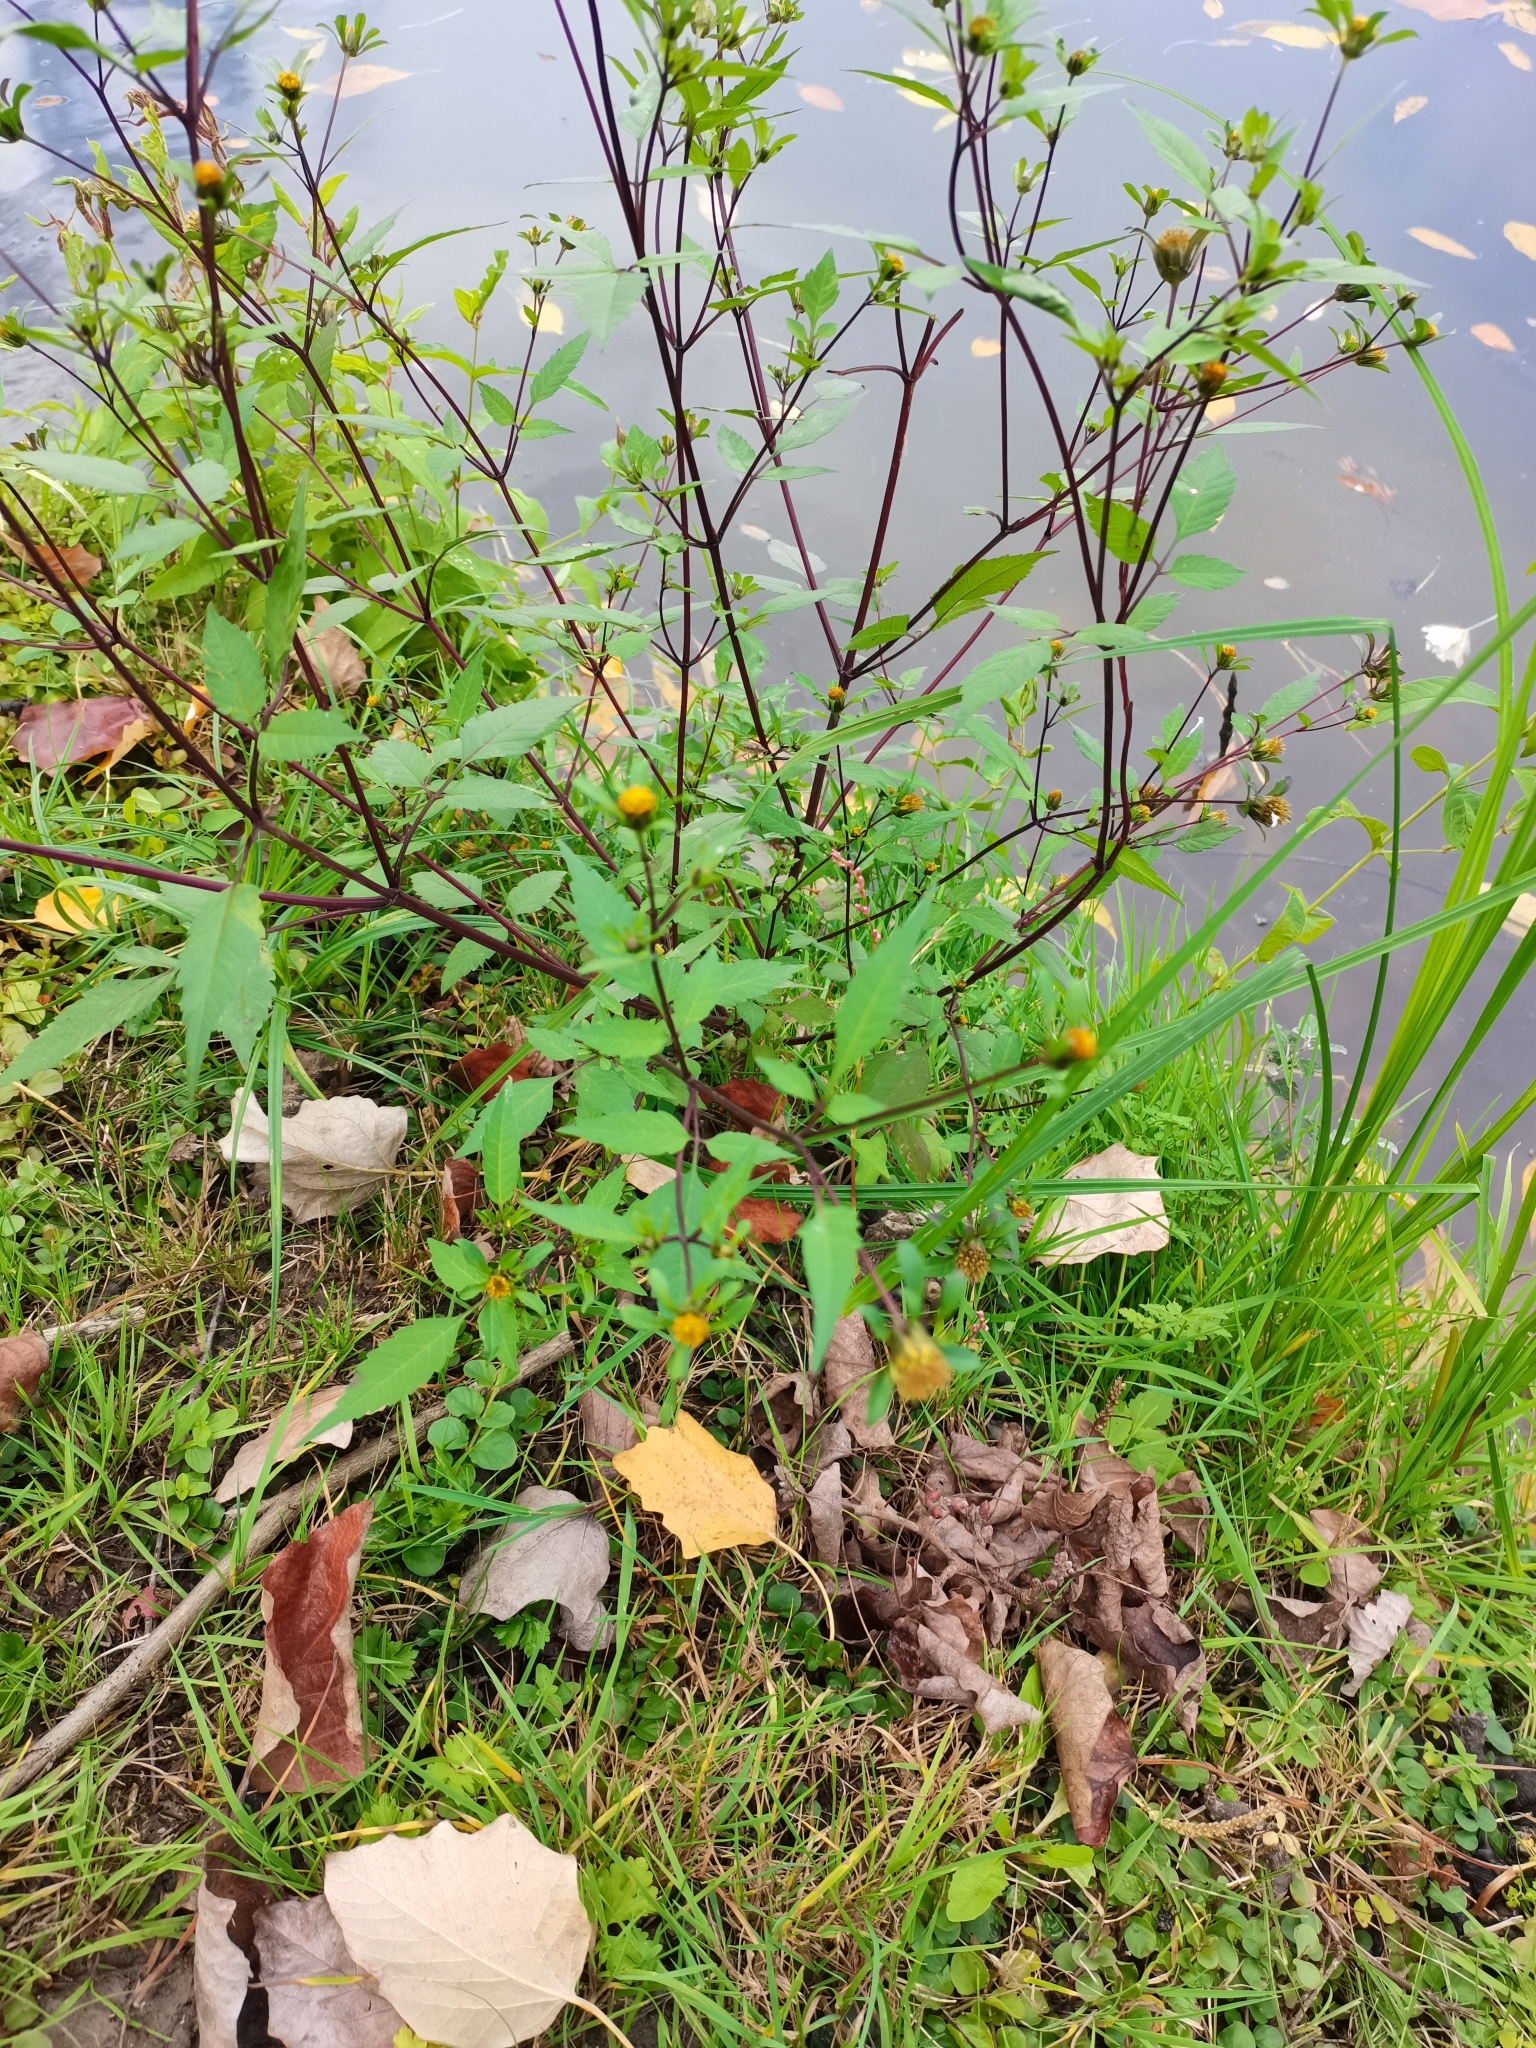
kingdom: Plantae
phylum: Tracheophyta
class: Magnoliopsida
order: Asterales
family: Asteraceae
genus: Bidens
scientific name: Bidens frondosa
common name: Beggarticks
